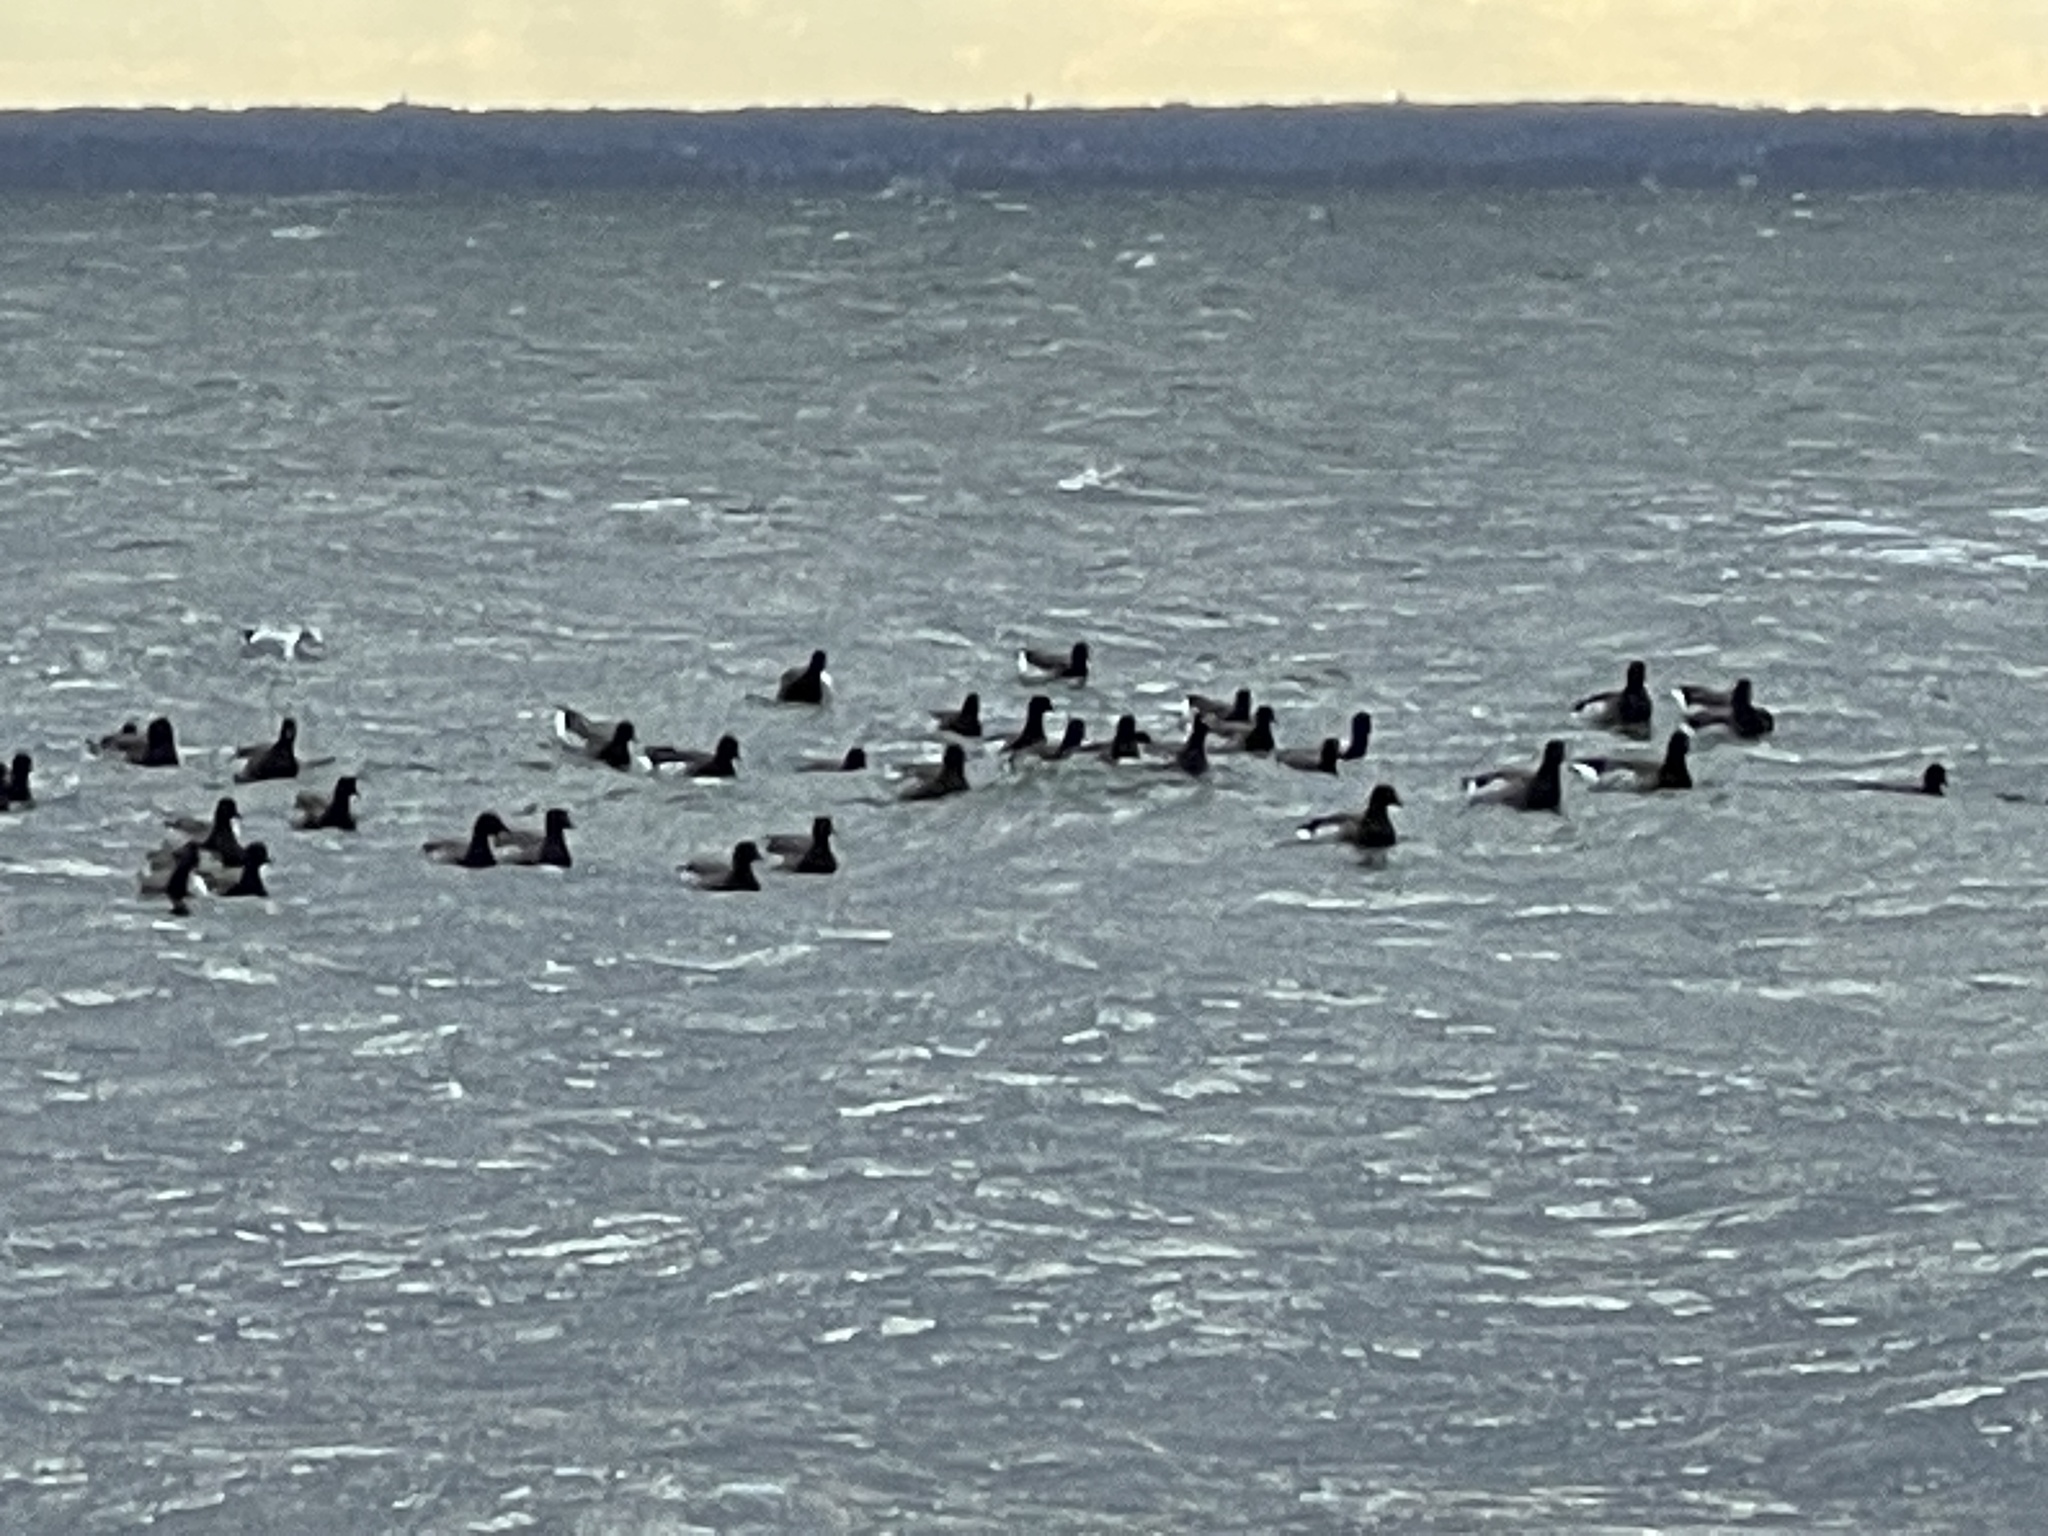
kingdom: Animalia
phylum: Chordata
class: Aves
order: Anseriformes
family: Anatidae
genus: Branta
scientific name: Branta bernicla
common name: Brant goose
